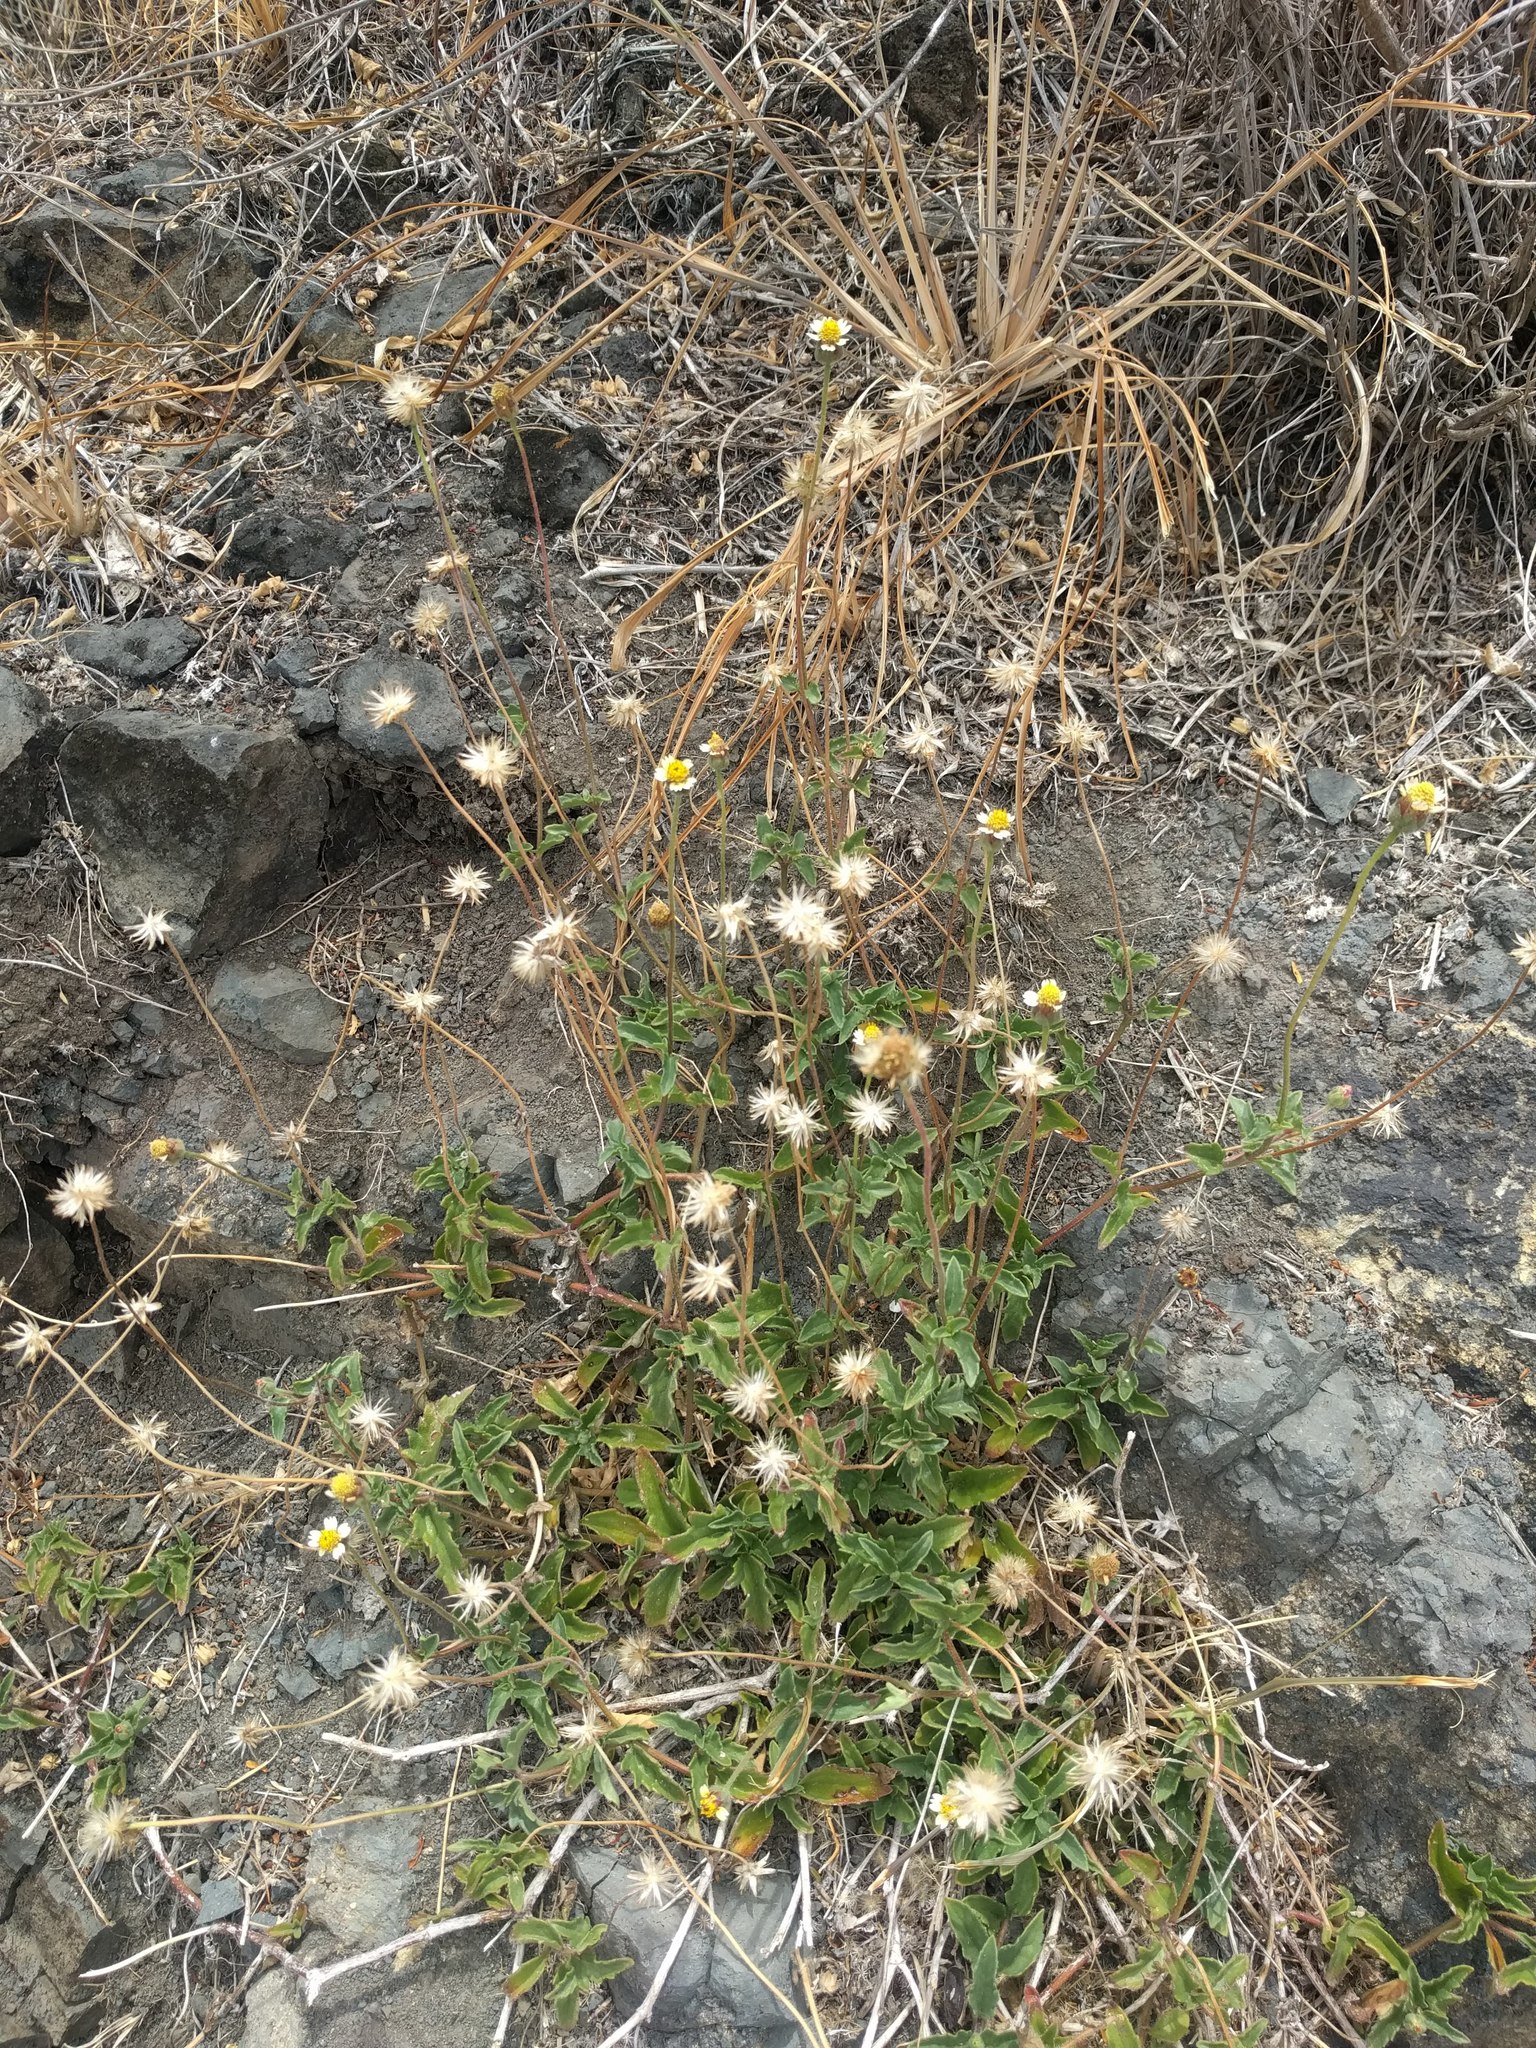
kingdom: Plantae
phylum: Tracheophyta
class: Magnoliopsida
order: Asterales
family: Asteraceae
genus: Tridax
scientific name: Tridax procumbens
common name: Coatbuttons
